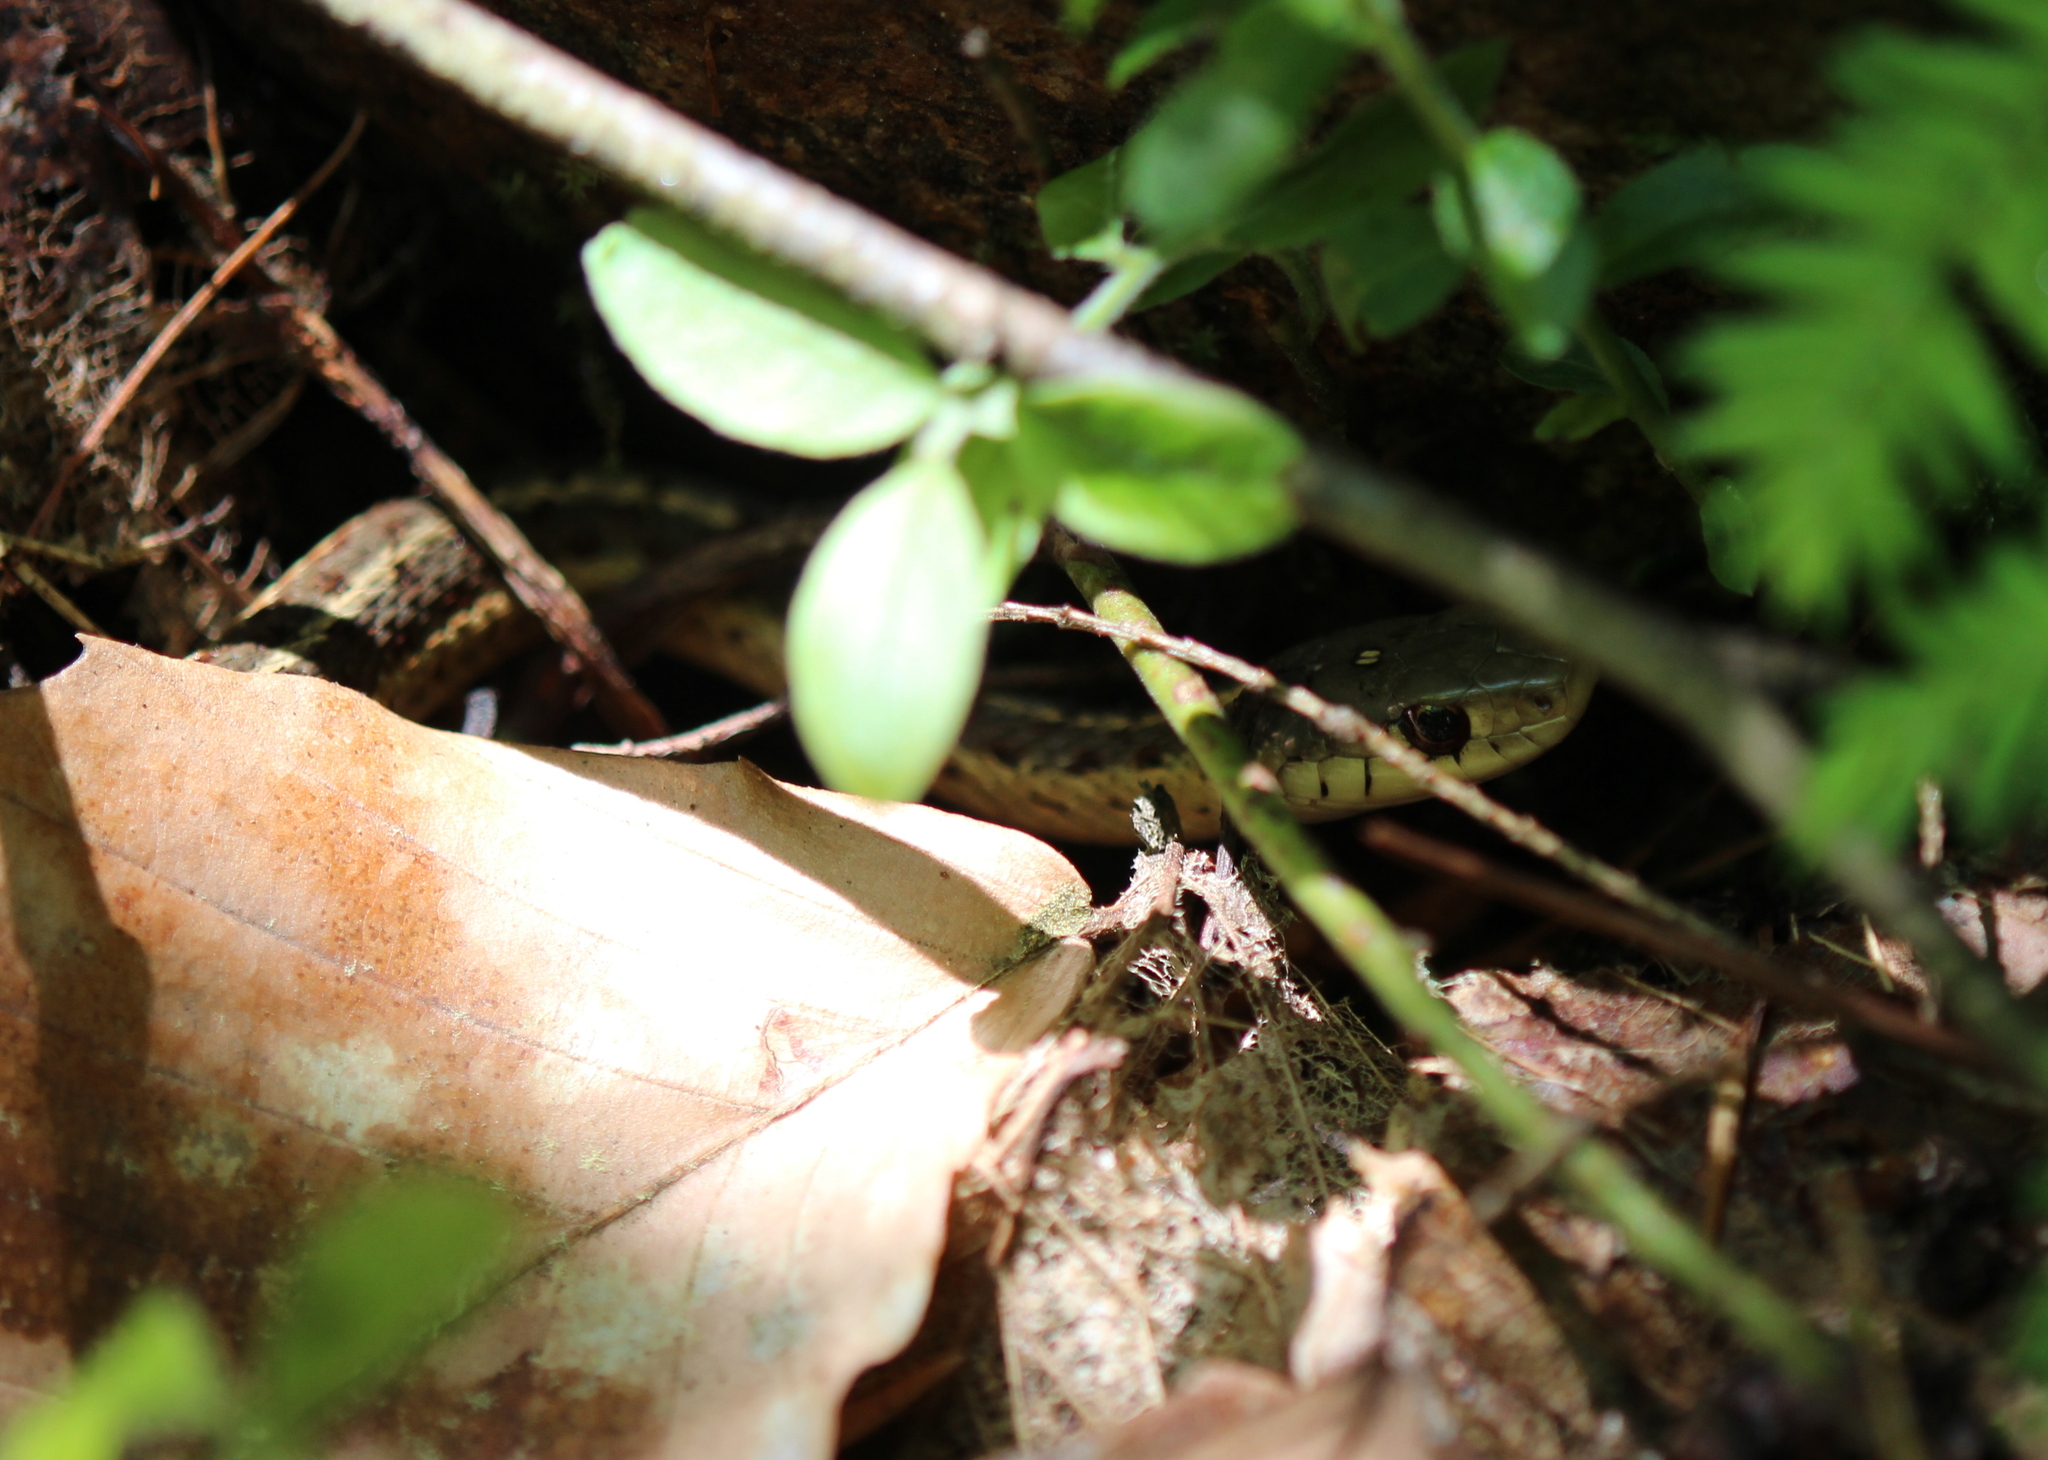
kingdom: Animalia
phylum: Chordata
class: Squamata
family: Colubridae
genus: Thamnophis
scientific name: Thamnophis sirtalis
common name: Common garter snake
